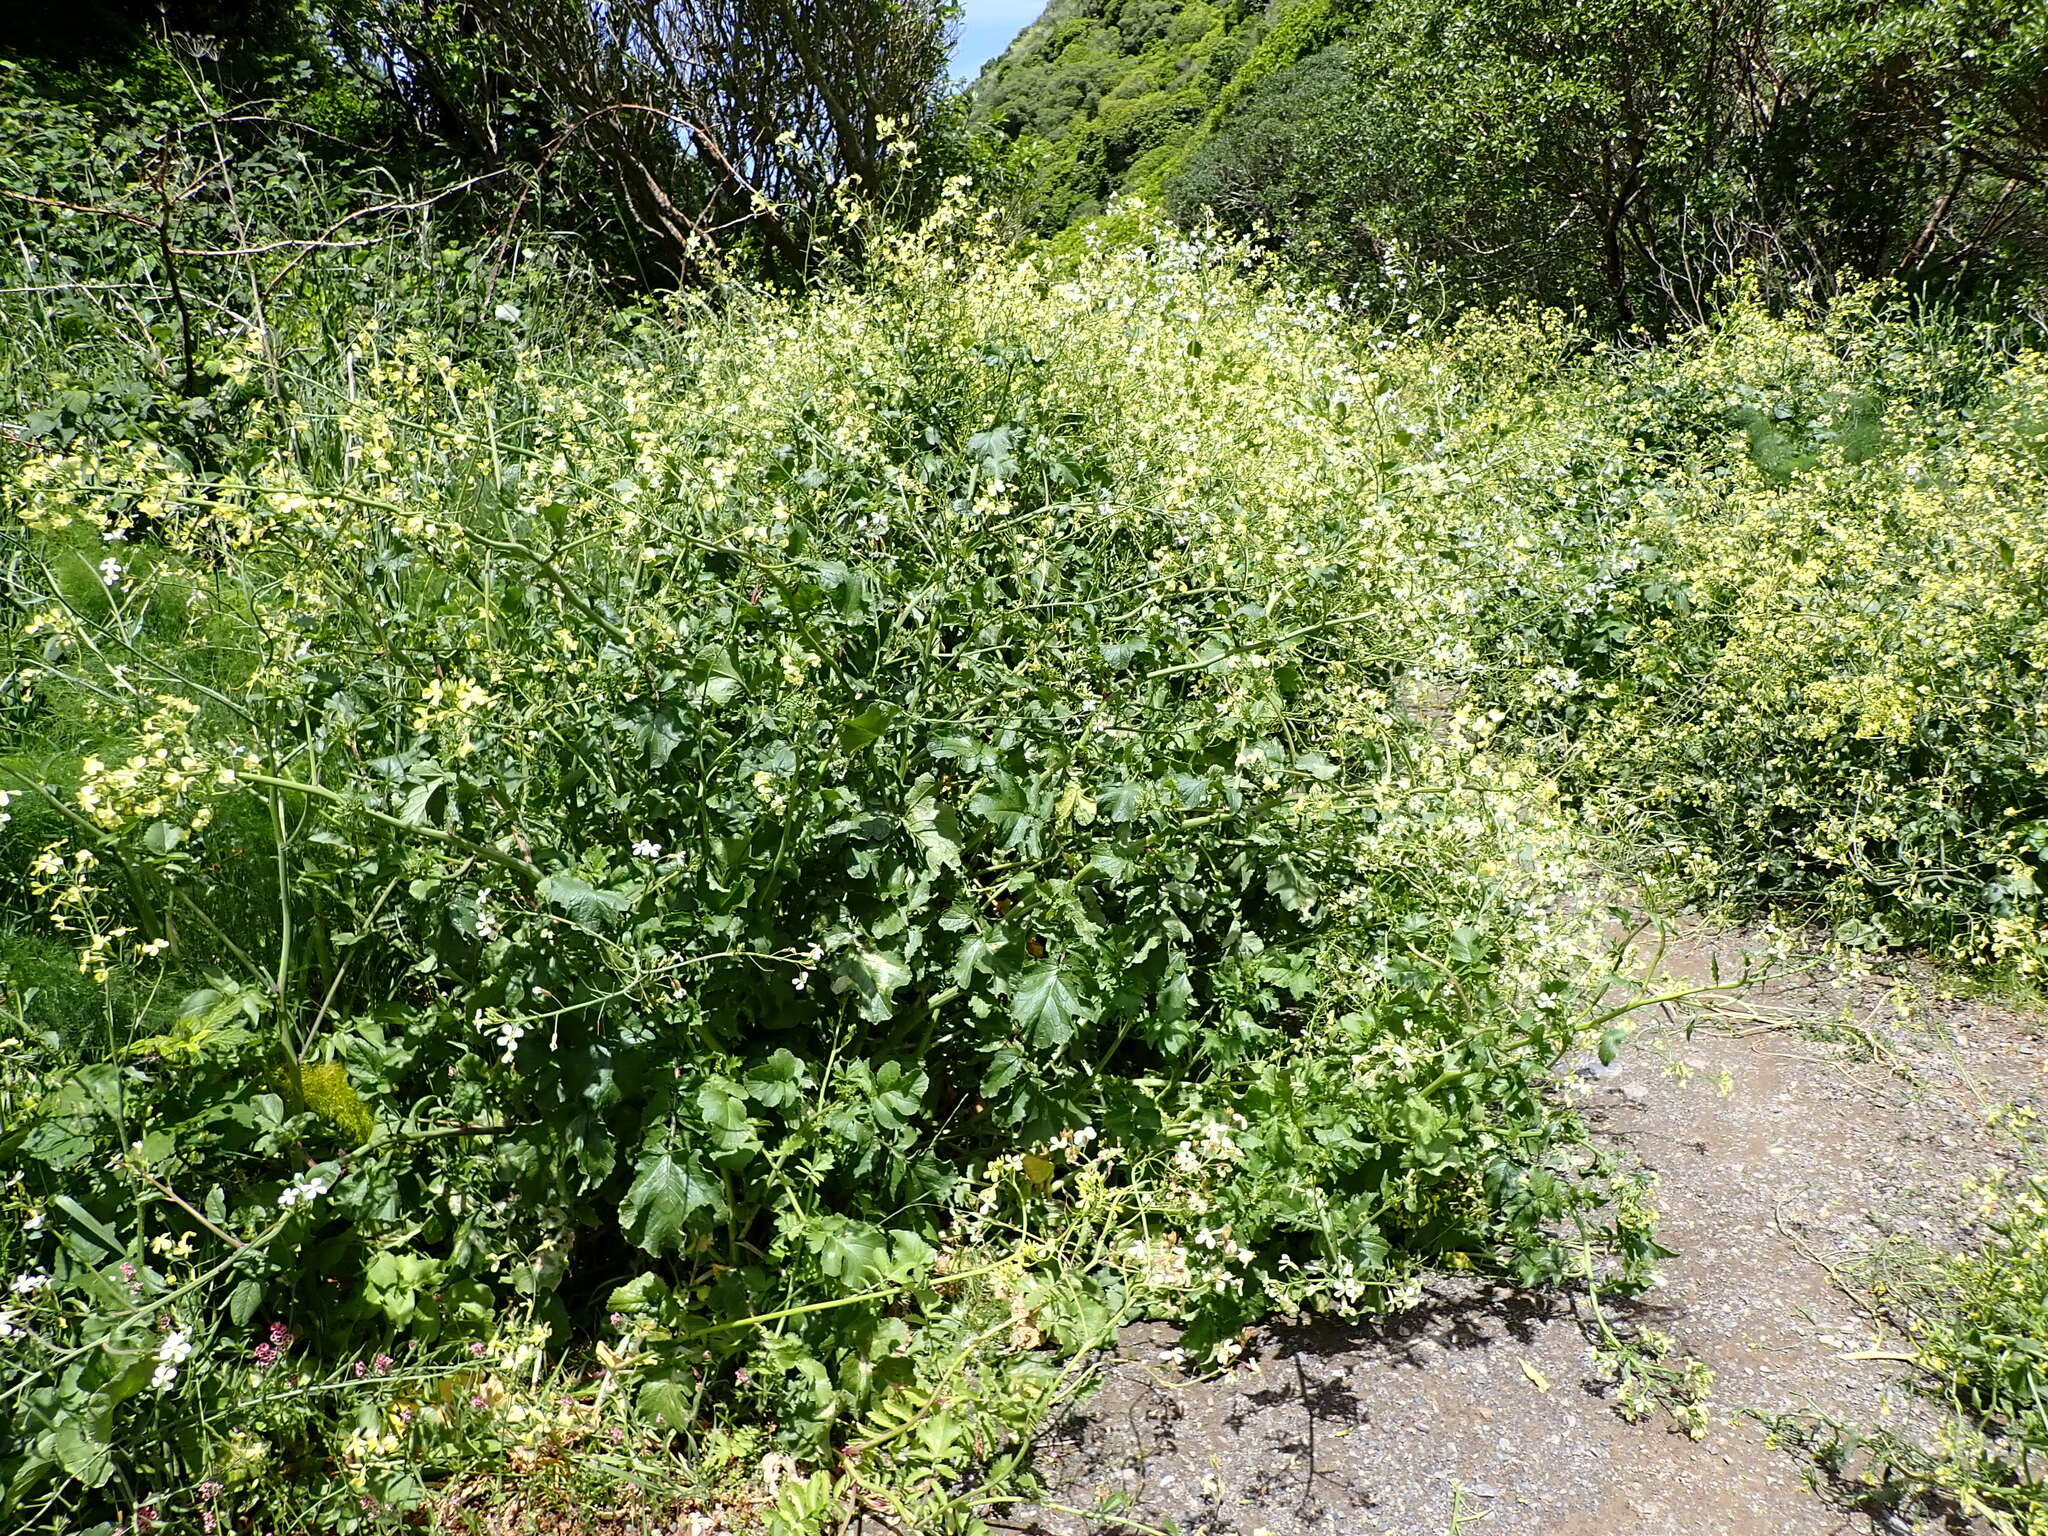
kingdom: Plantae
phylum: Tracheophyta
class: Magnoliopsida
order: Brassicales
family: Brassicaceae
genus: Raphanus
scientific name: Raphanus raphanistrum
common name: Wild radish
